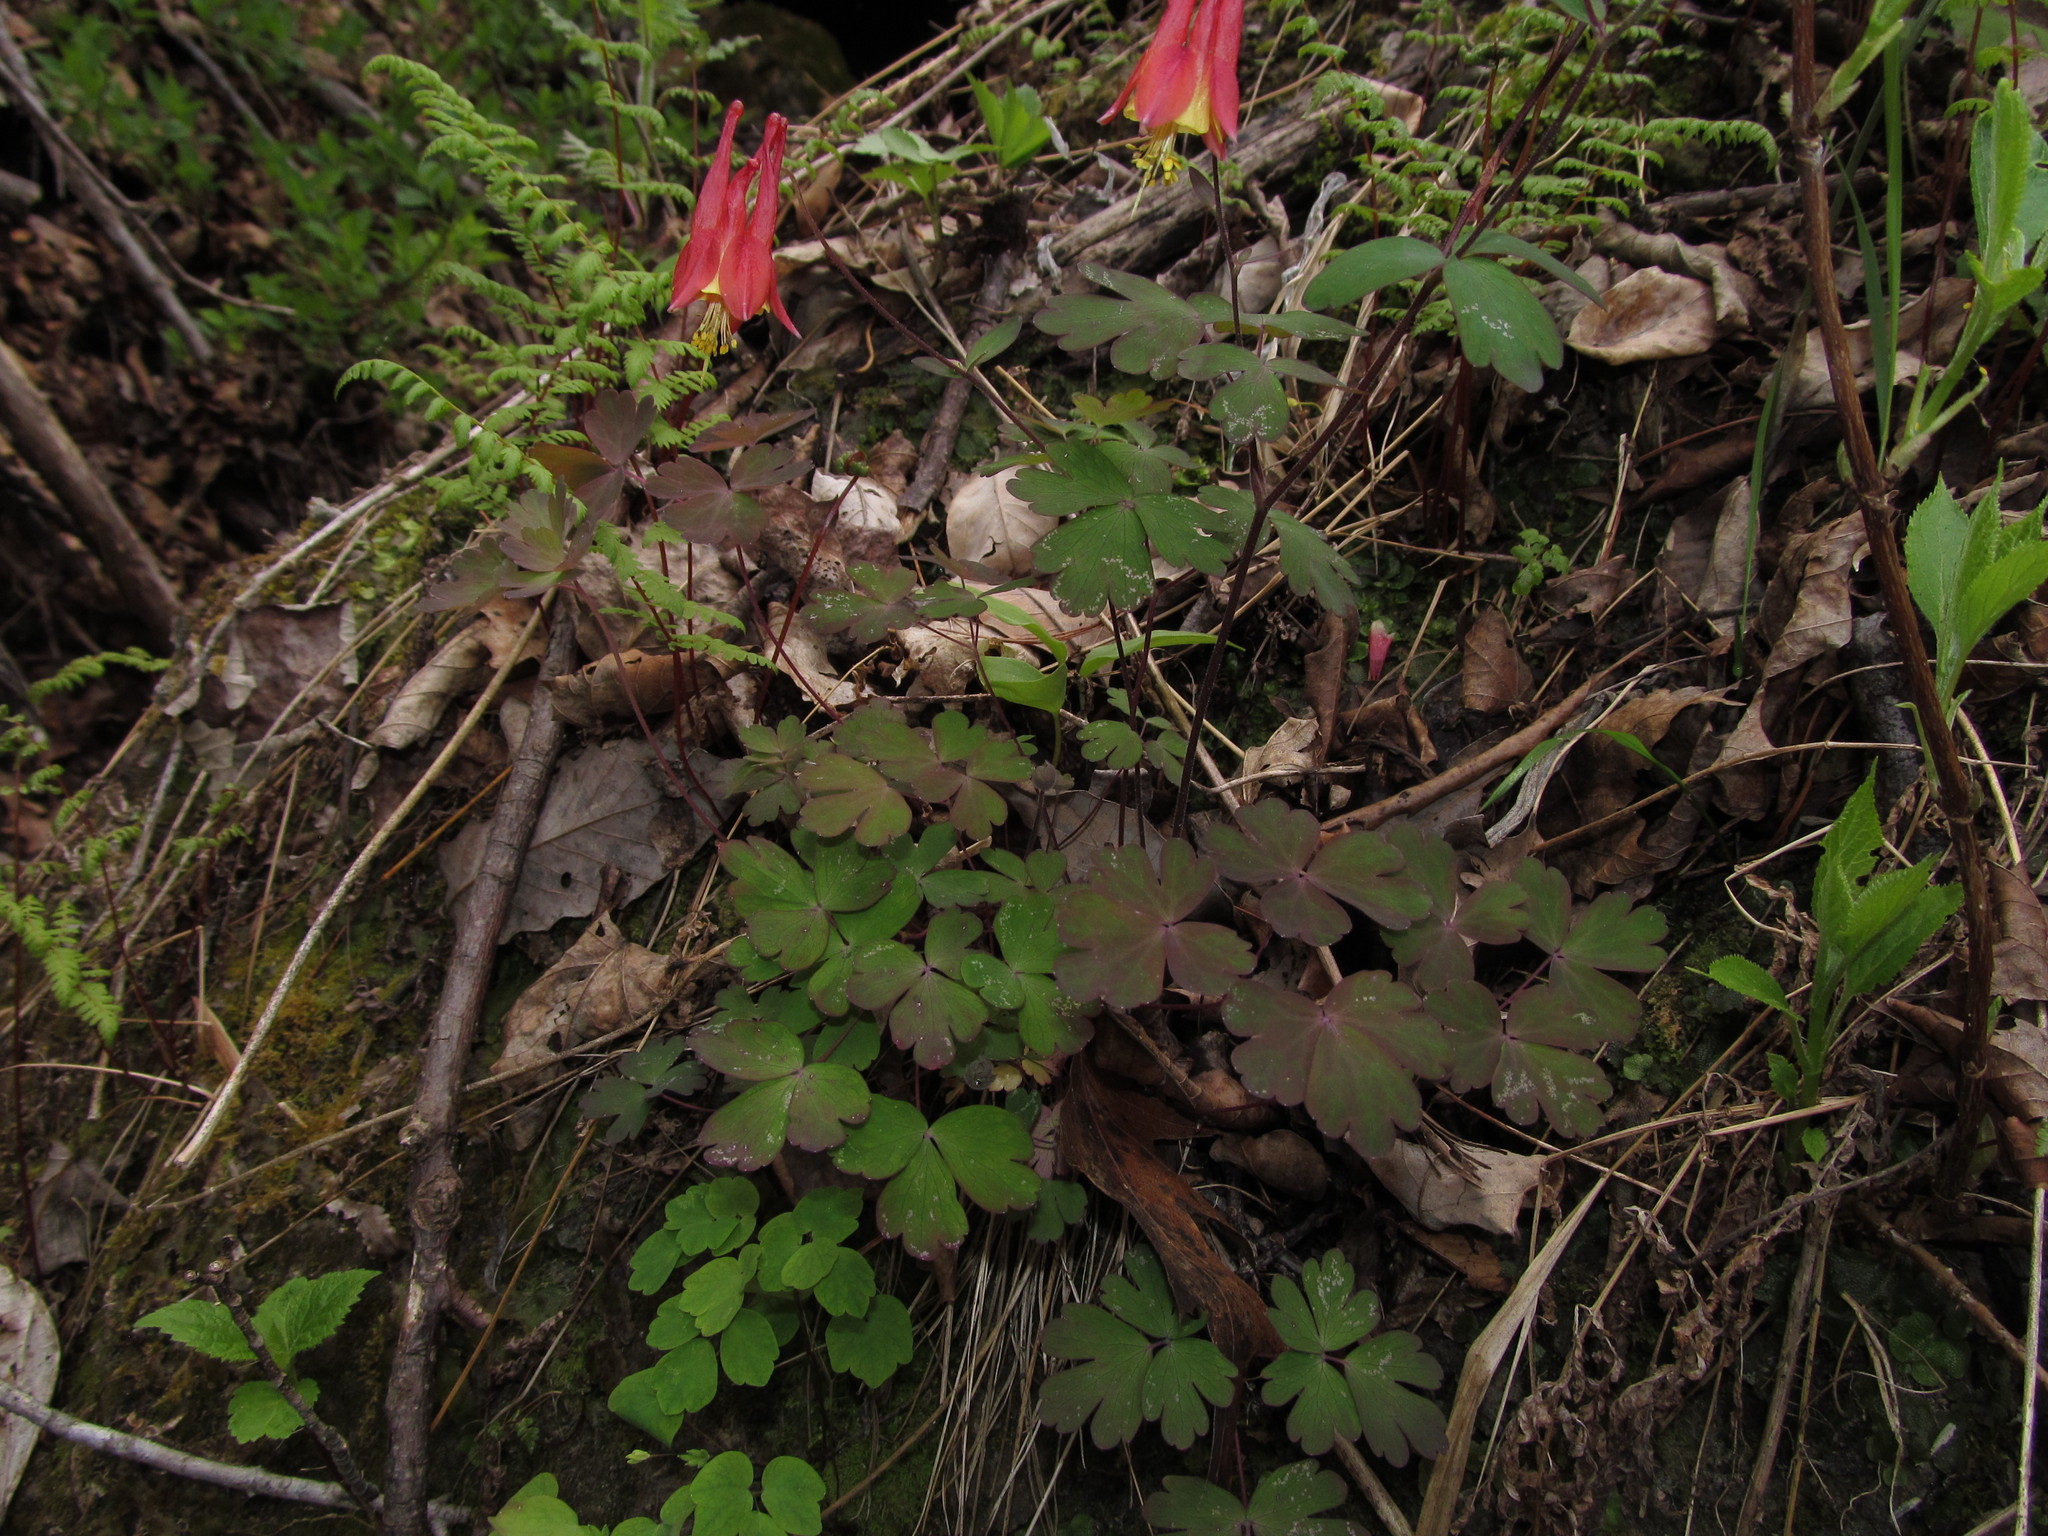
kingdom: Plantae
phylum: Tracheophyta
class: Magnoliopsida
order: Ranunculales
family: Ranunculaceae
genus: Aquilegia
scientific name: Aquilegia canadensis
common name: American columbine
